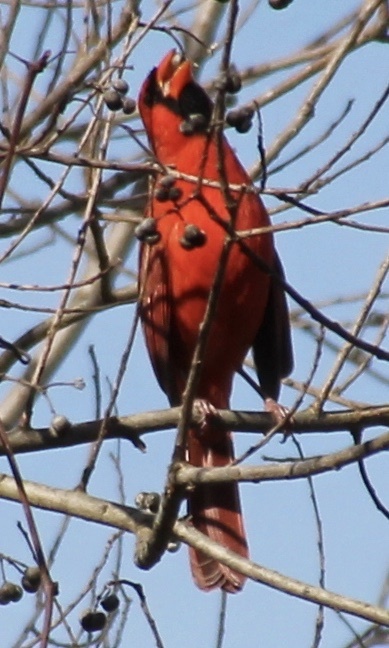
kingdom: Animalia
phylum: Chordata
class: Aves
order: Passeriformes
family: Cardinalidae
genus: Cardinalis
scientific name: Cardinalis cardinalis
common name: Northern cardinal
